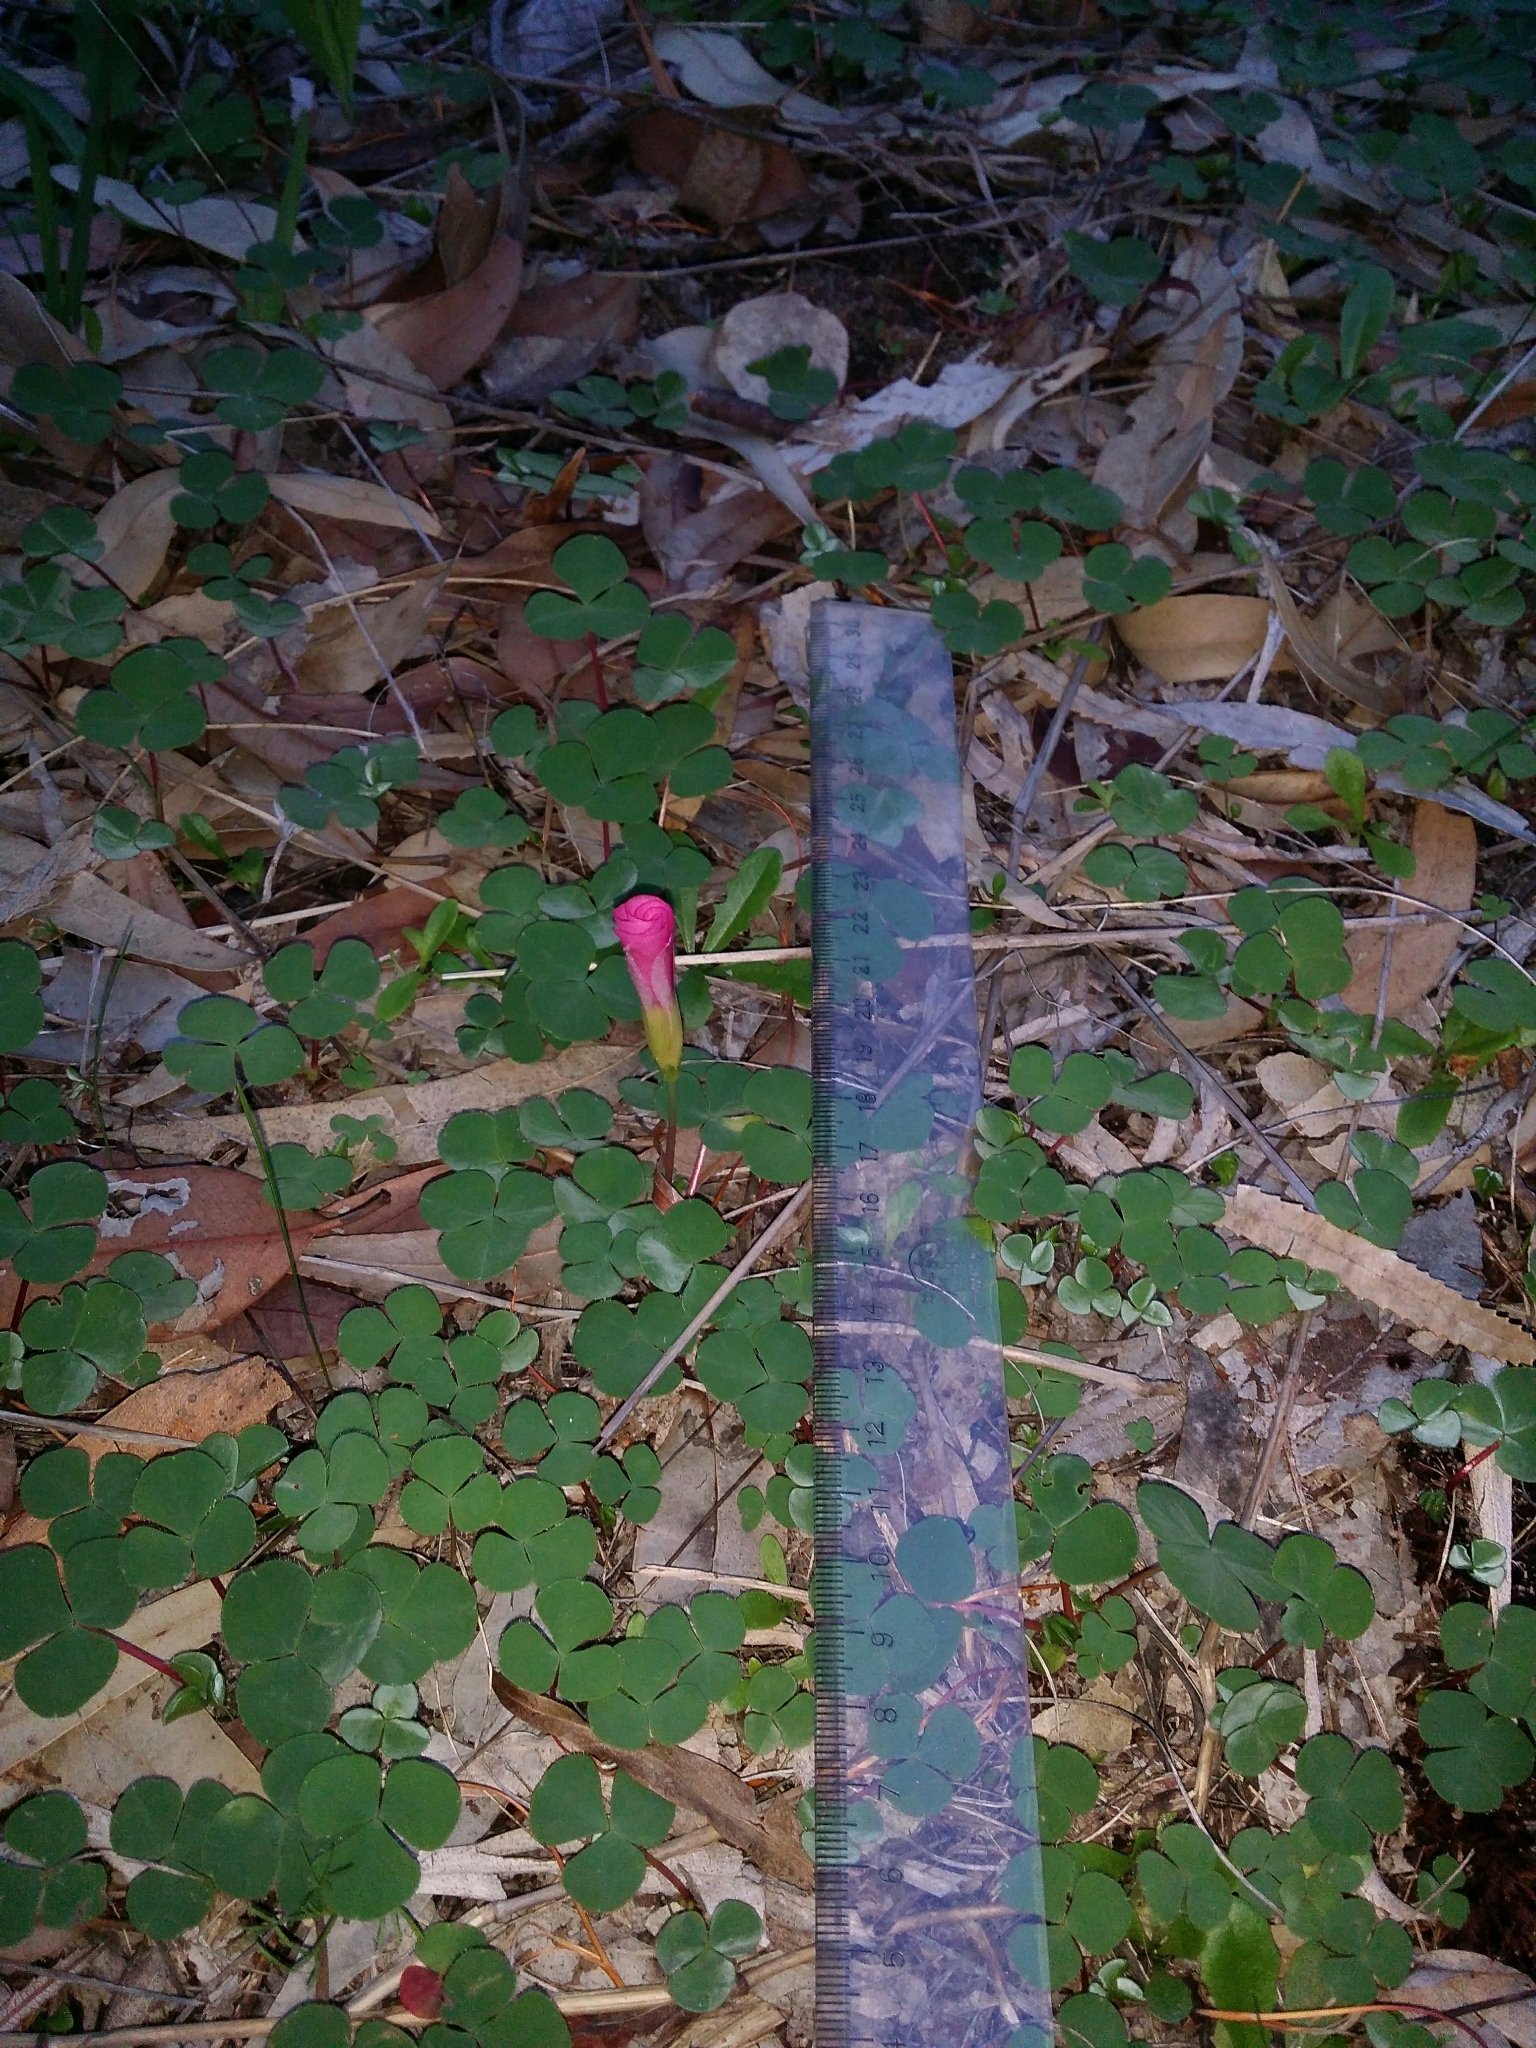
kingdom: Plantae
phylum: Tracheophyta
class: Magnoliopsida
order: Oxalidales
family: Oxalidaceae
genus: Oxalis
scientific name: Oxalis purpurea
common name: Purple woodsorrel
